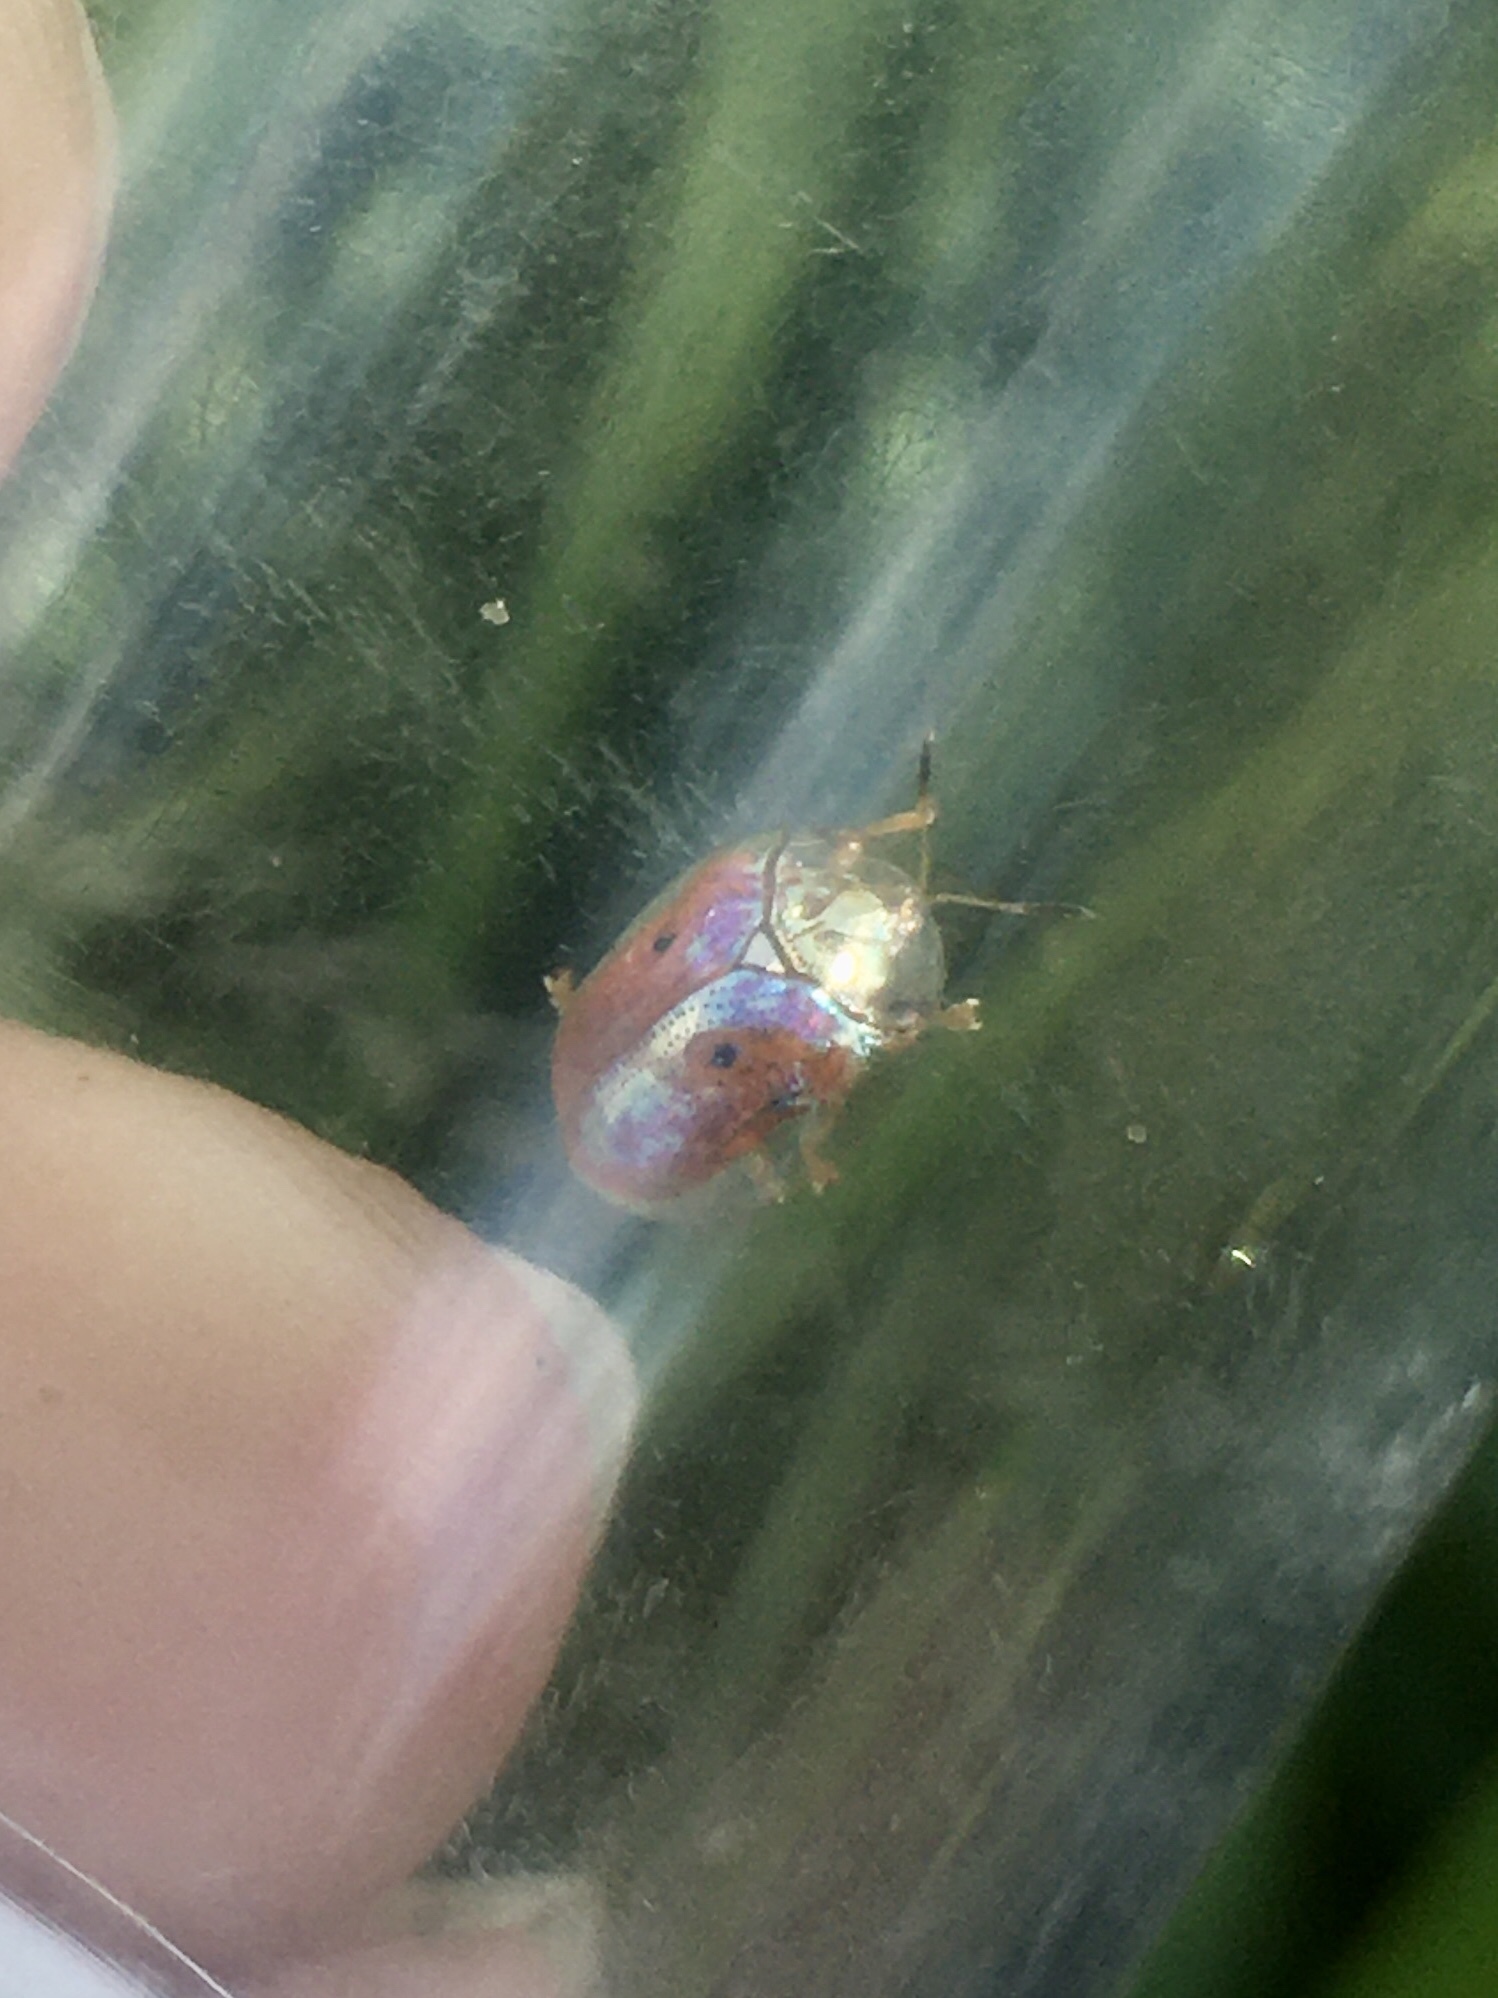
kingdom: Animalia
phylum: Arthropoda
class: Insecta
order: Coleoptera
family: Chrysomelidae
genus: Charidotella
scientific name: Charidotella sexpunctata
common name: Golden tortoise beetle
